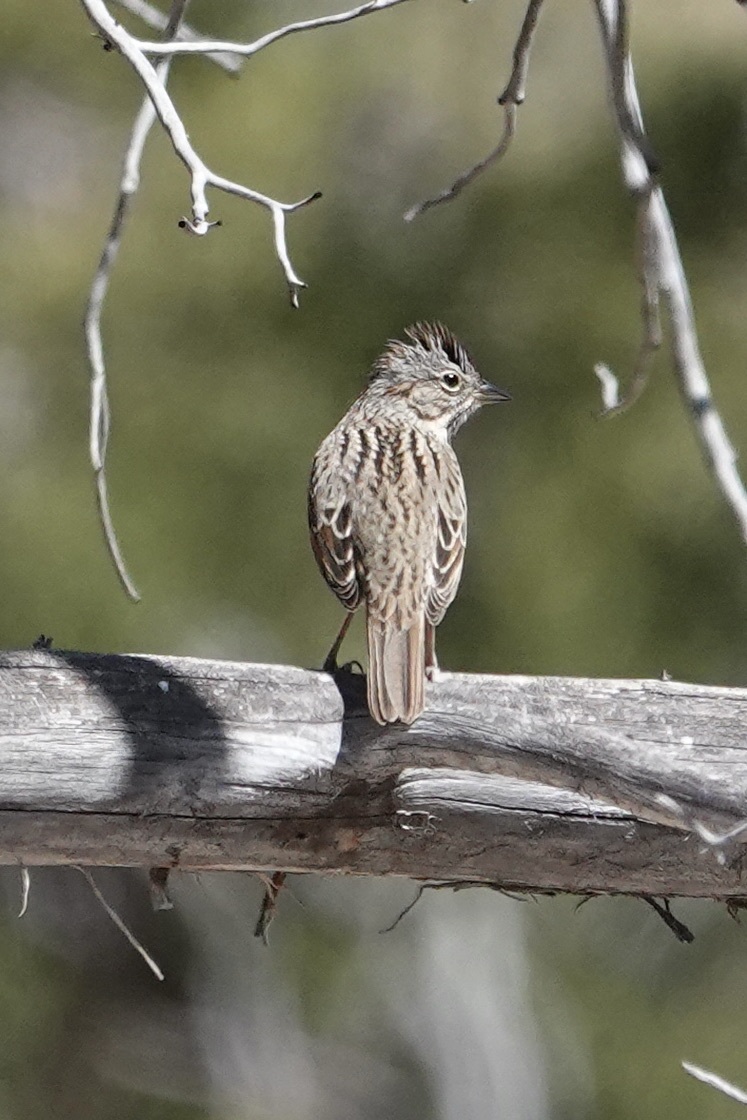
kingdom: Animalia
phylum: Chordata
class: Aves
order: Passeriformes
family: Passerellidae
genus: Spizella
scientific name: Spizella breweri
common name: Brewer's sparrow
